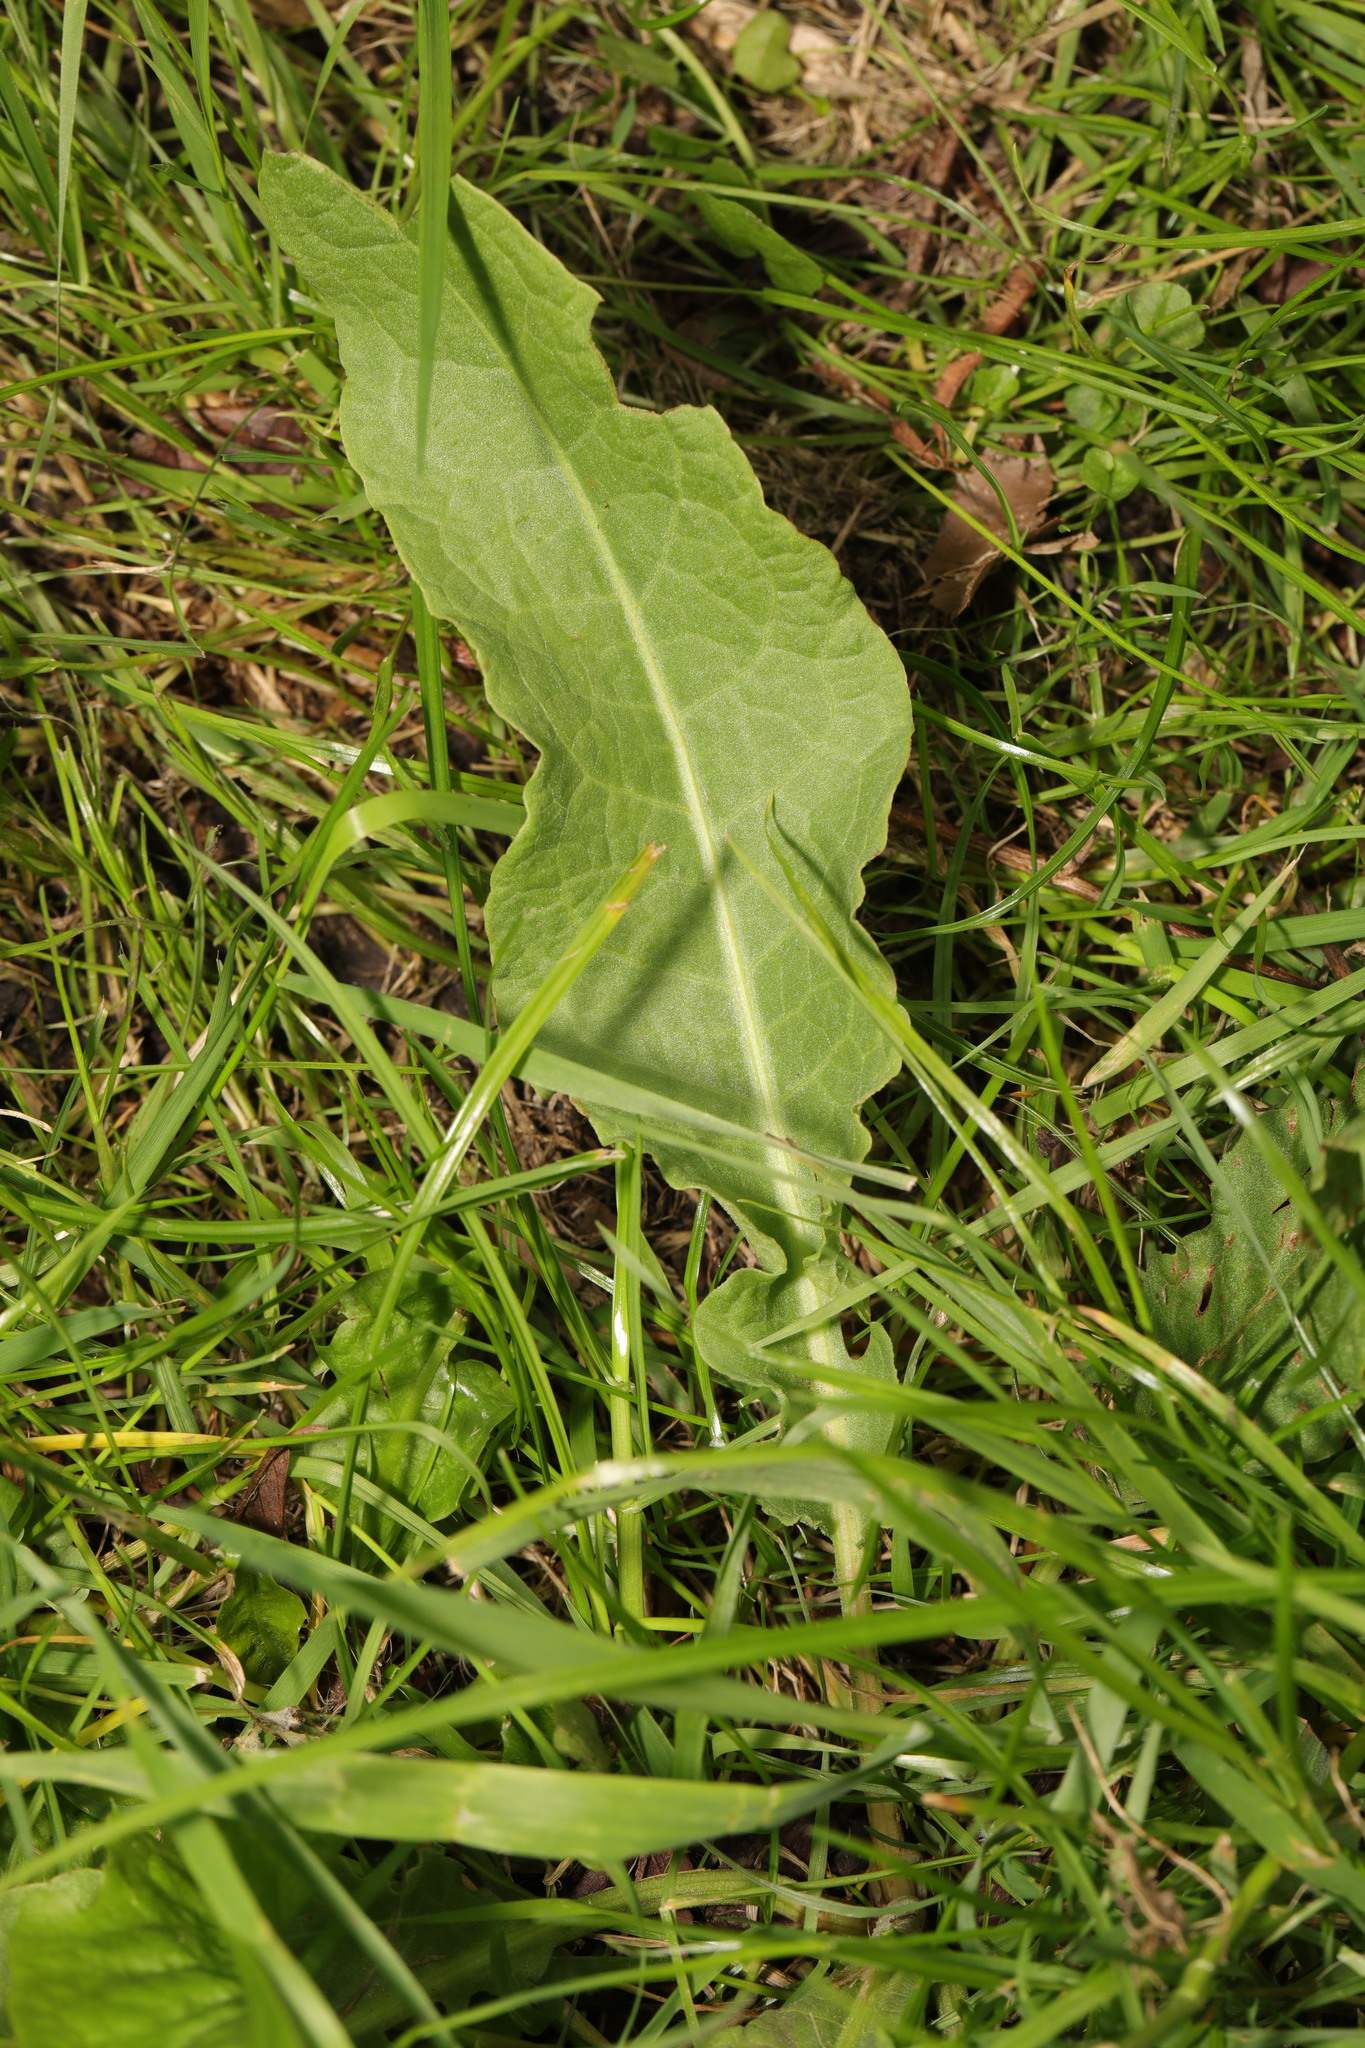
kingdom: Plantae
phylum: Tracheophyta
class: Magnoliopsida
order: Caryophyllales
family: Polygonaceae
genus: Rumex
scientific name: Rumex crispus
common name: Curled dock
